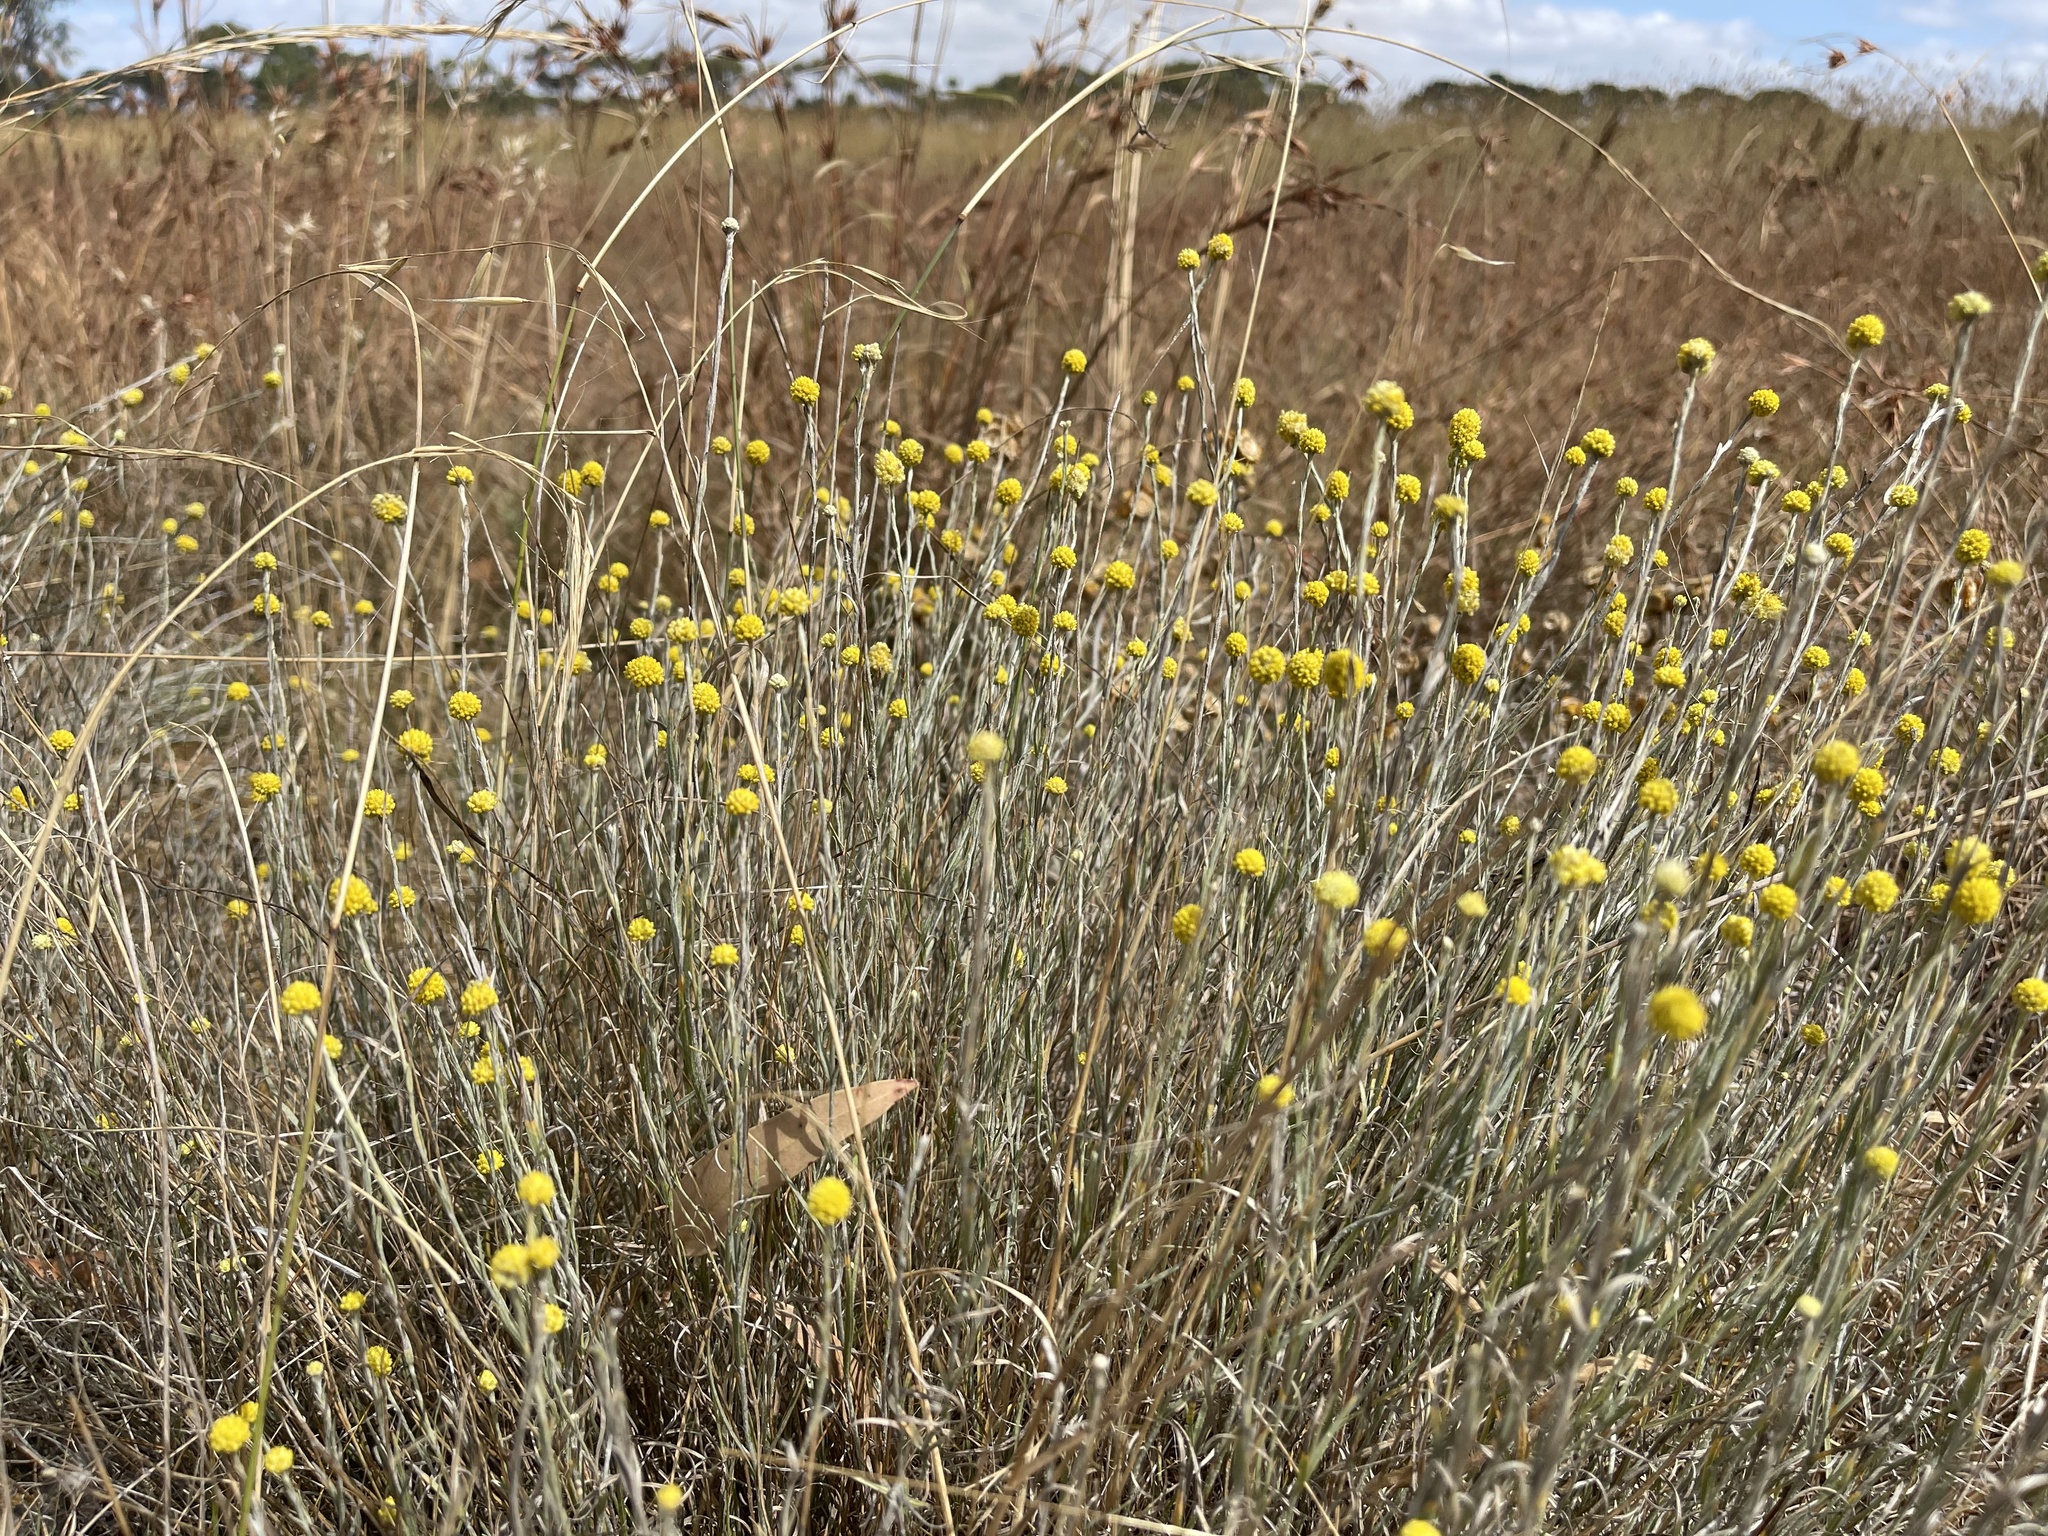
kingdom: Plantae
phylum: Tracheophyta
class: Magnoliopsida
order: Asterales
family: Asteraceae
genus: Calocephalus
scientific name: Calocephalus citreus
